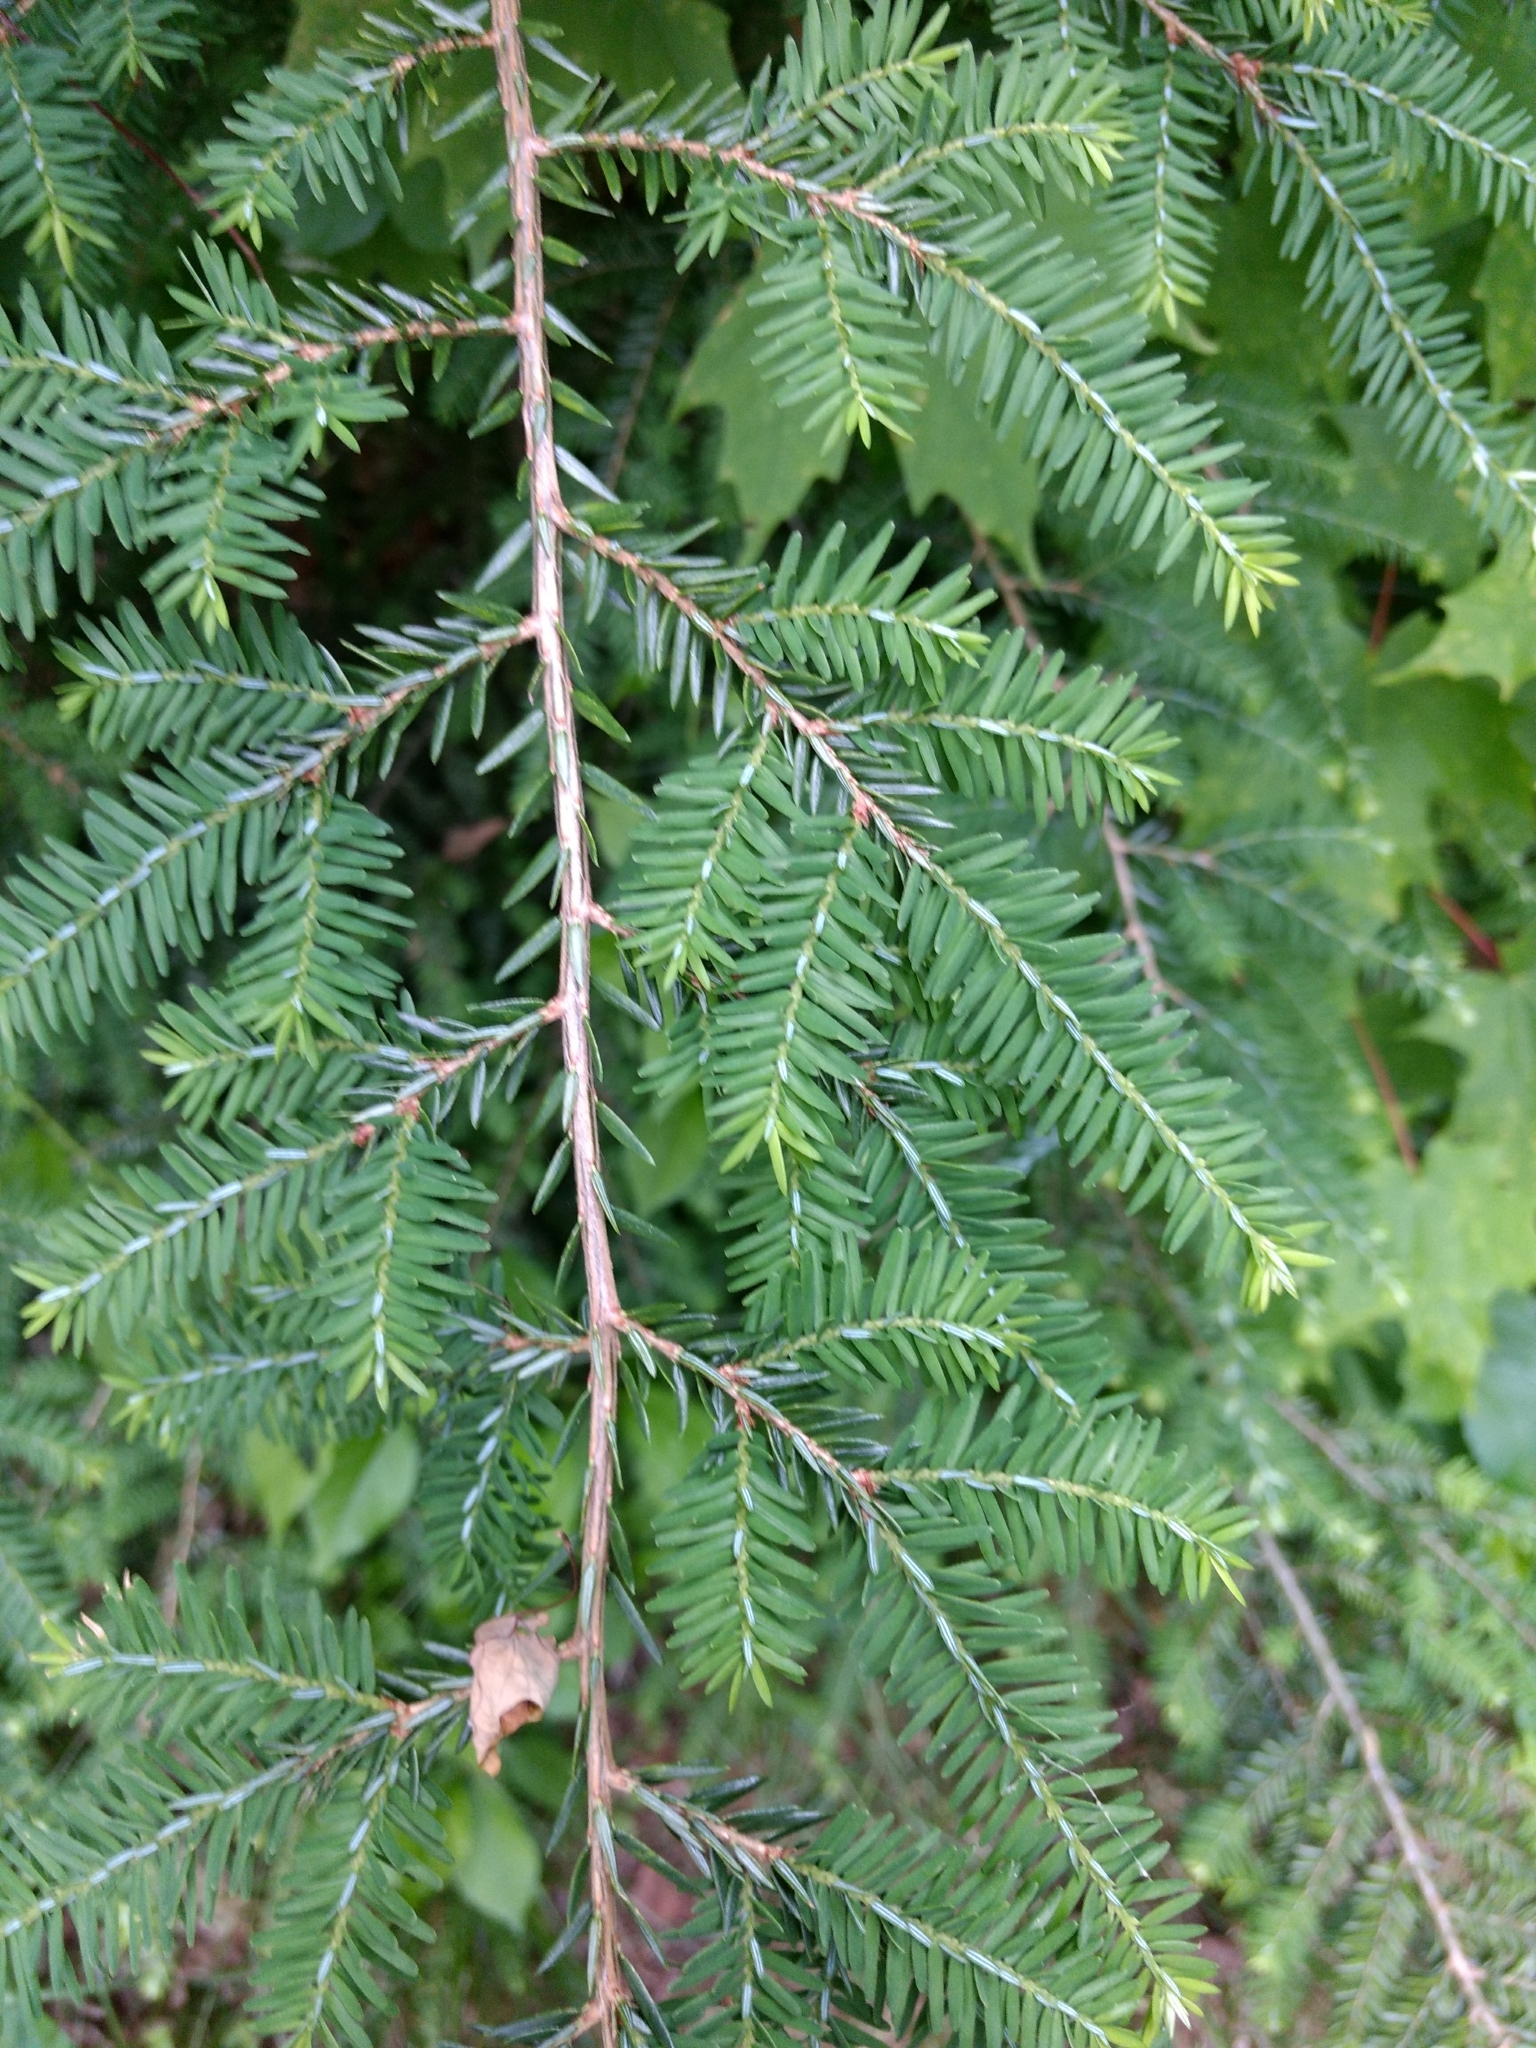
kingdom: Plantae
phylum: Tracheophyta
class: Pinopsida
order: Pinales
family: Pinaceae
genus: Tsuga
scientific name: Tsuga canadensis
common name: Eastern hemlock
